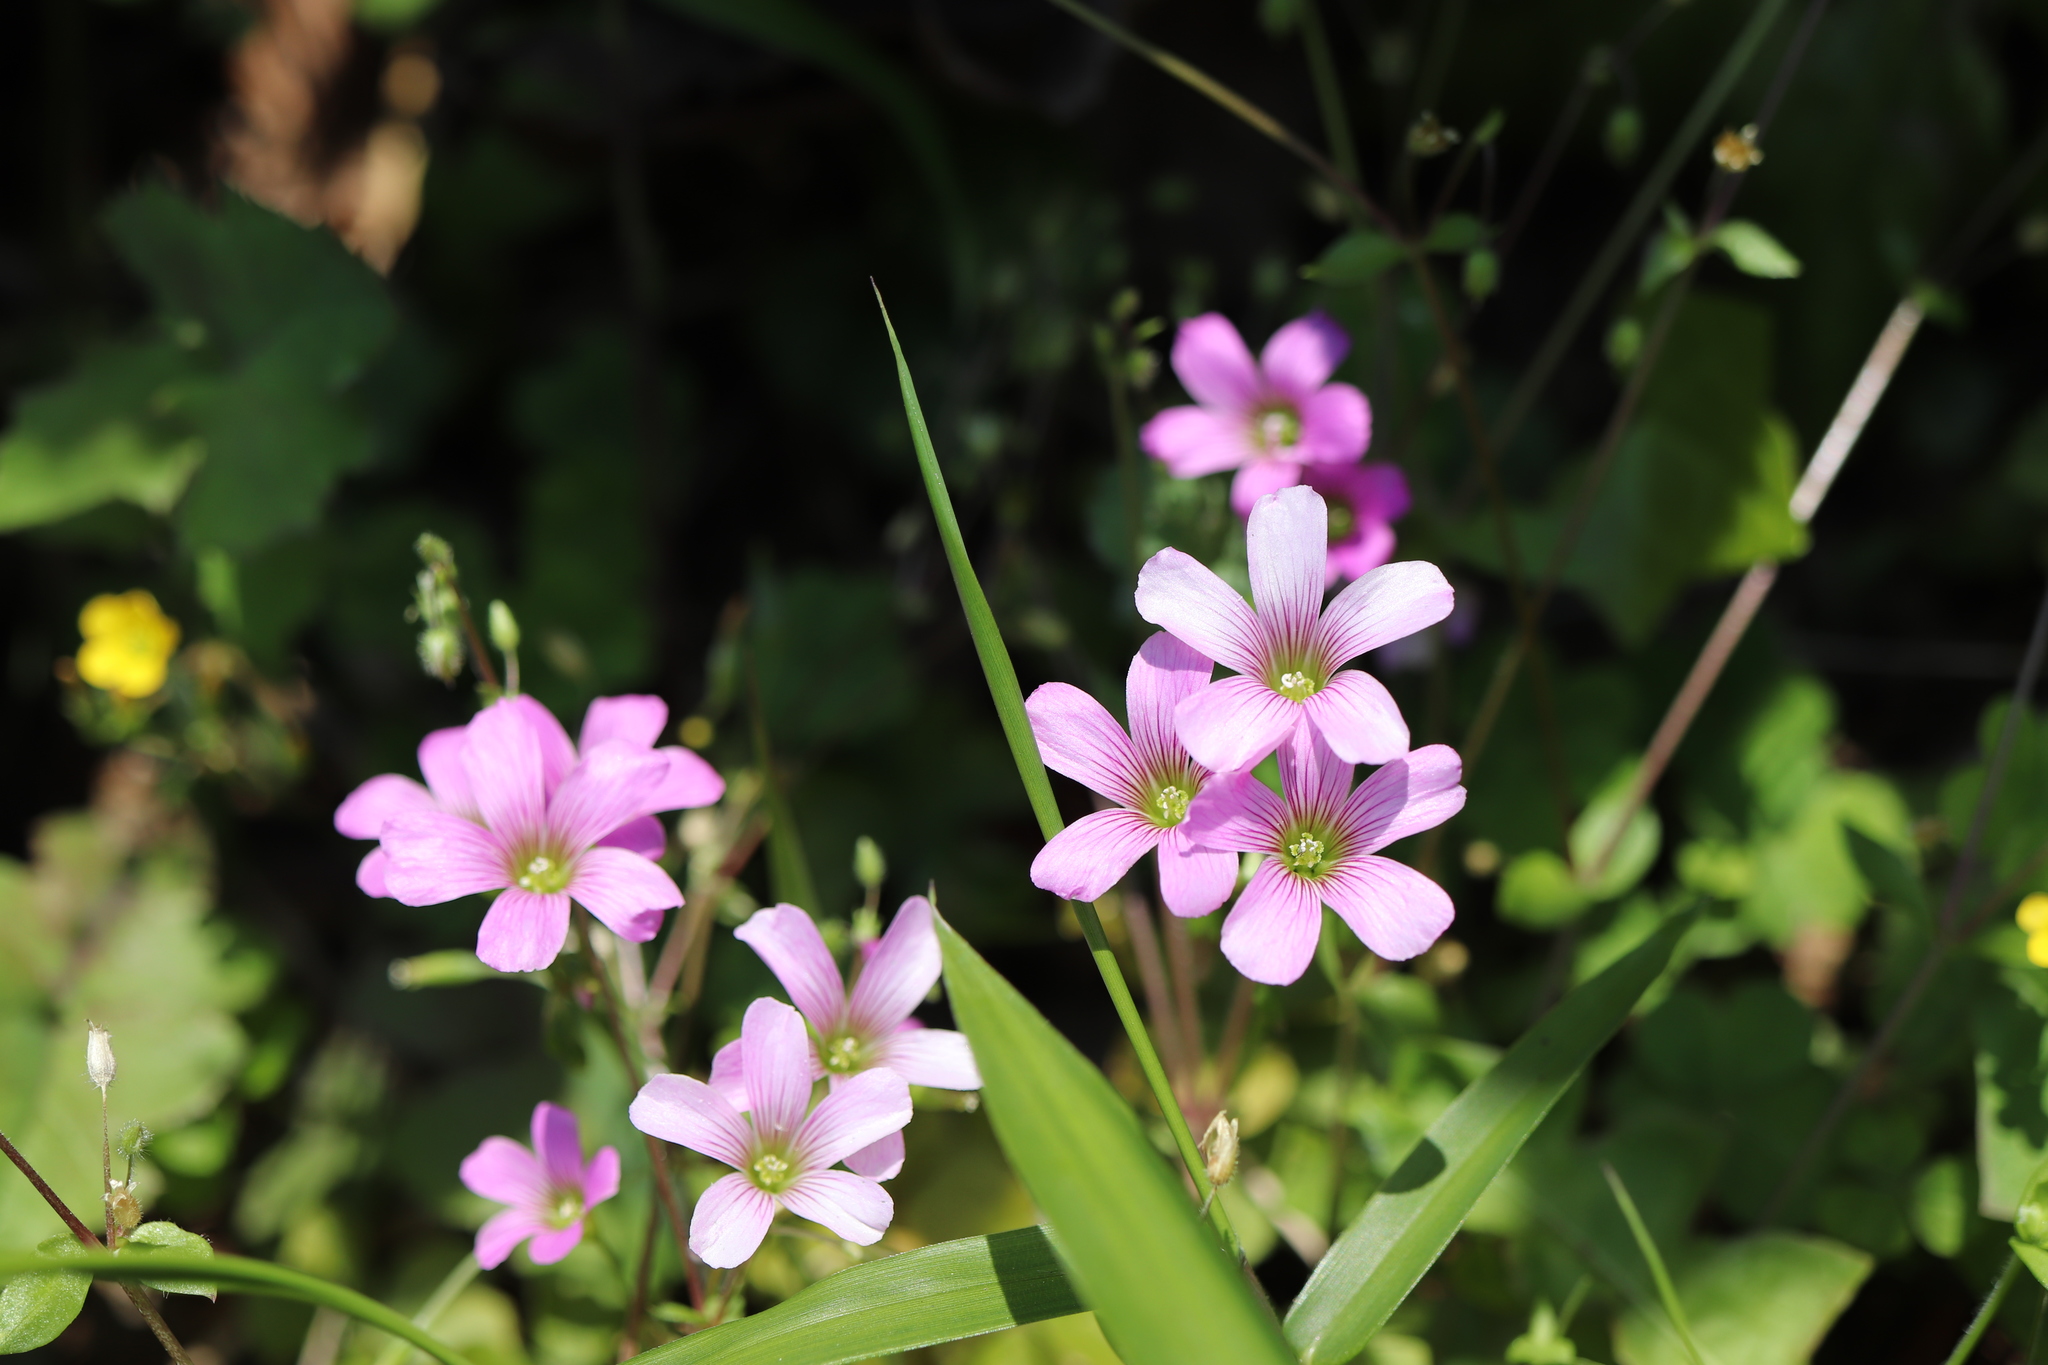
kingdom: Plantae
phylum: Tracheophyta
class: Magnoliopsida
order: Oxalidales
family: Oxalidaceae
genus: Oxalis
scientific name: Oxalis debilis
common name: Large-flowered pink-sorrel
